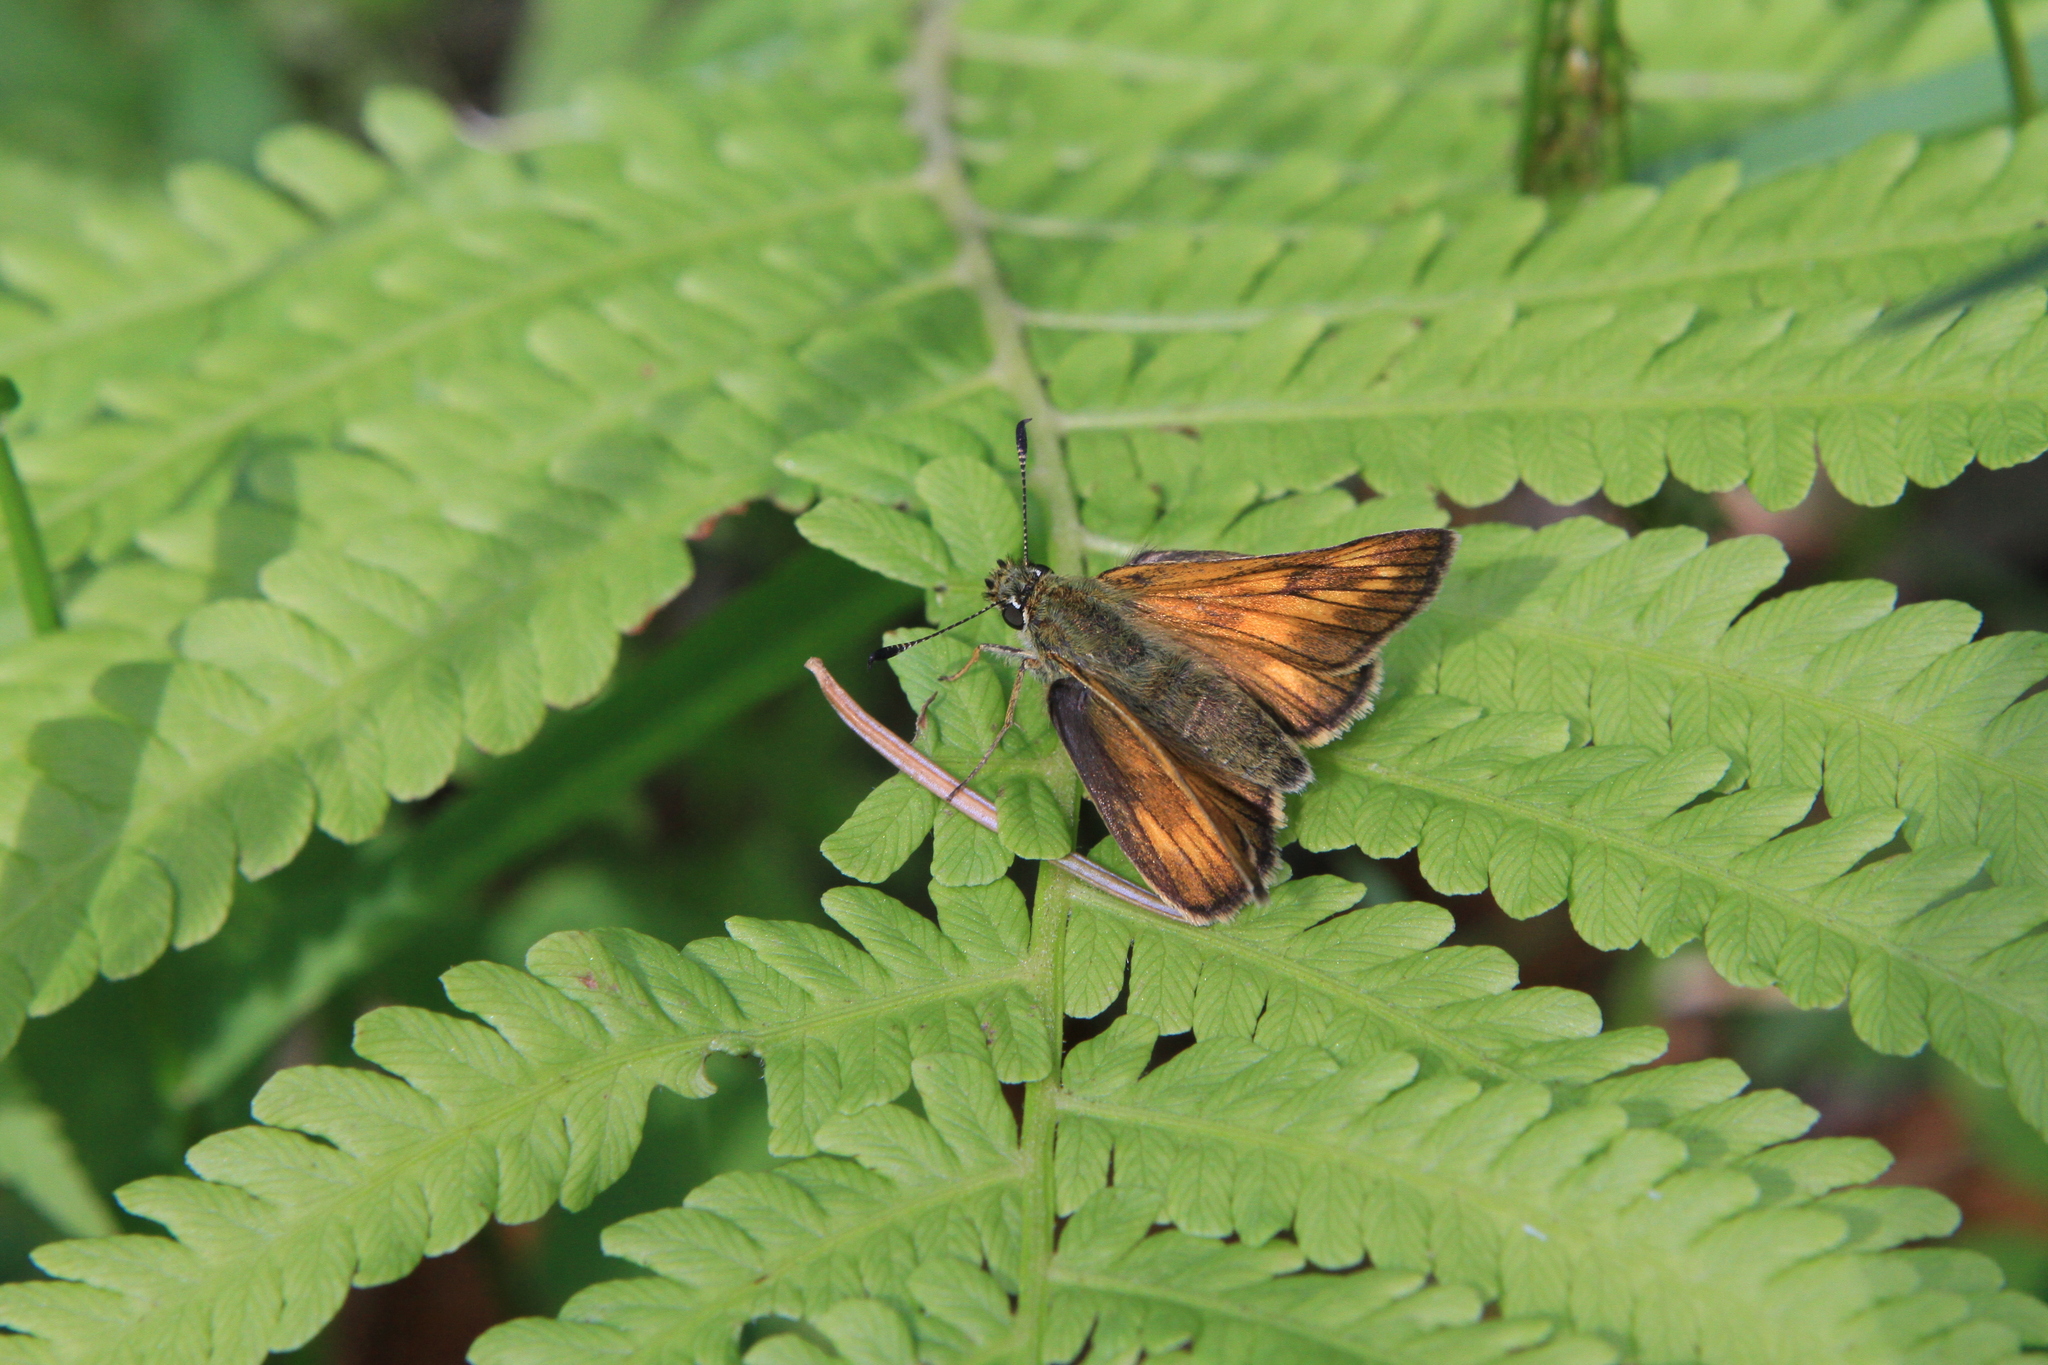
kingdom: Plantae
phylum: Tracheophyta
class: Polypodiopsida
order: Polypodiales
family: Onocleaceae
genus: Matteuccia
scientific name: Matteuccia struthiopteris
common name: Ostrich fern
